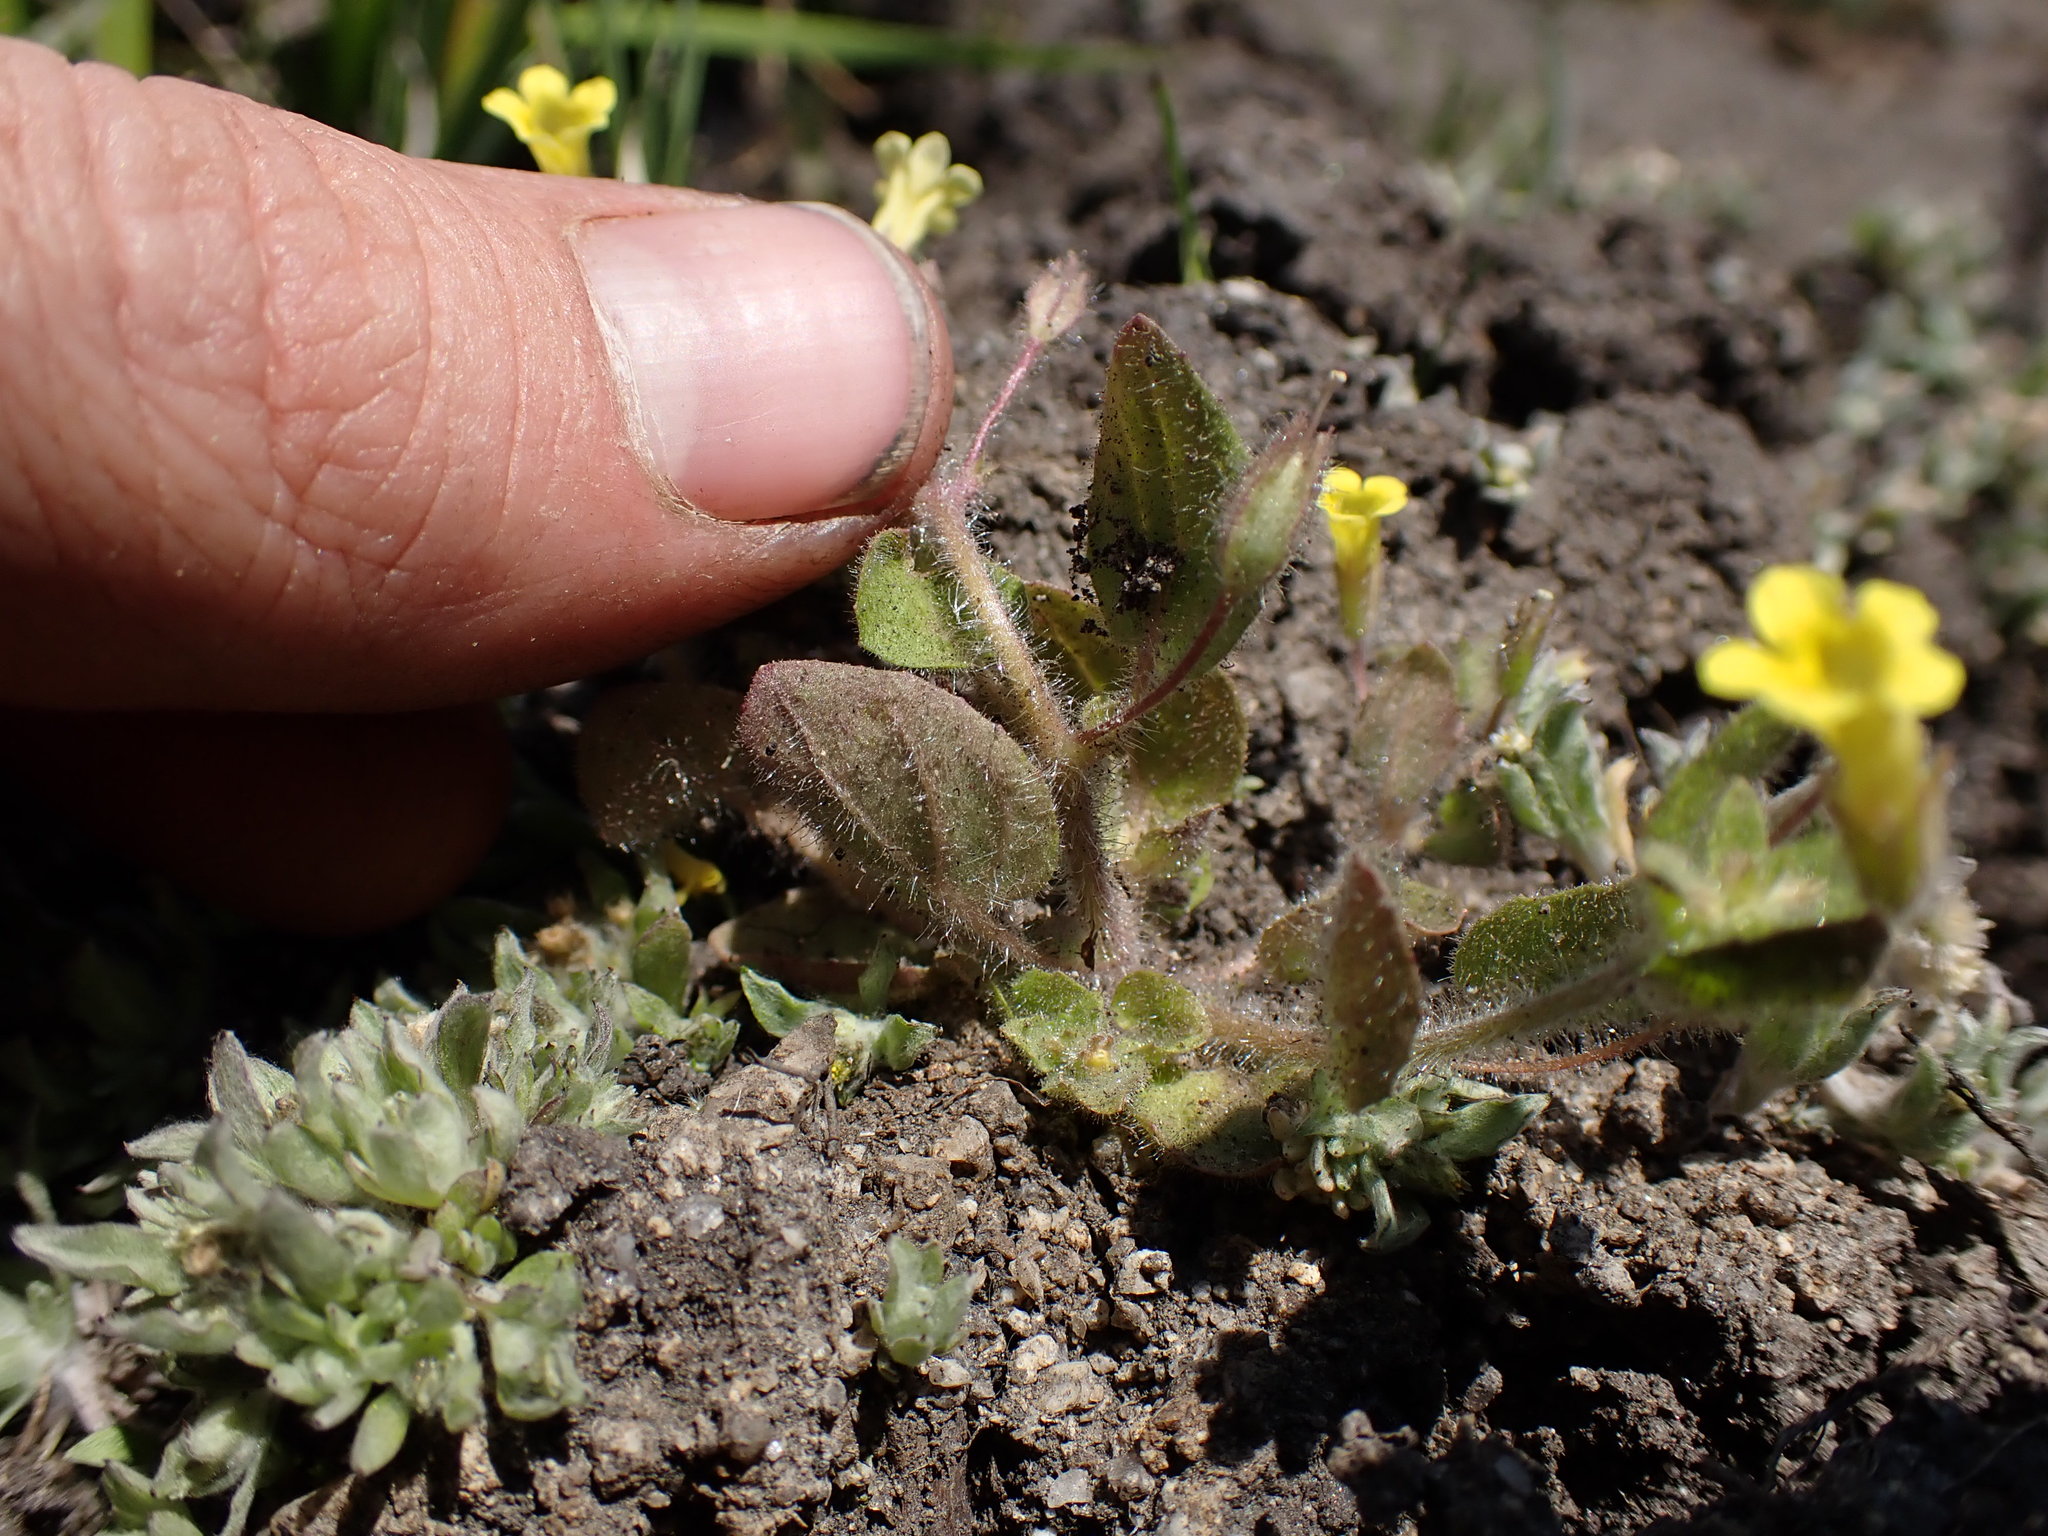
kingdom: Plantae
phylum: Tracheophyta
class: Magnoliopsida
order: Lamiales
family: Phrymaceae
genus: Erythranthe
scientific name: Erythranthe floribunda
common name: Floriferous monkeyflower
